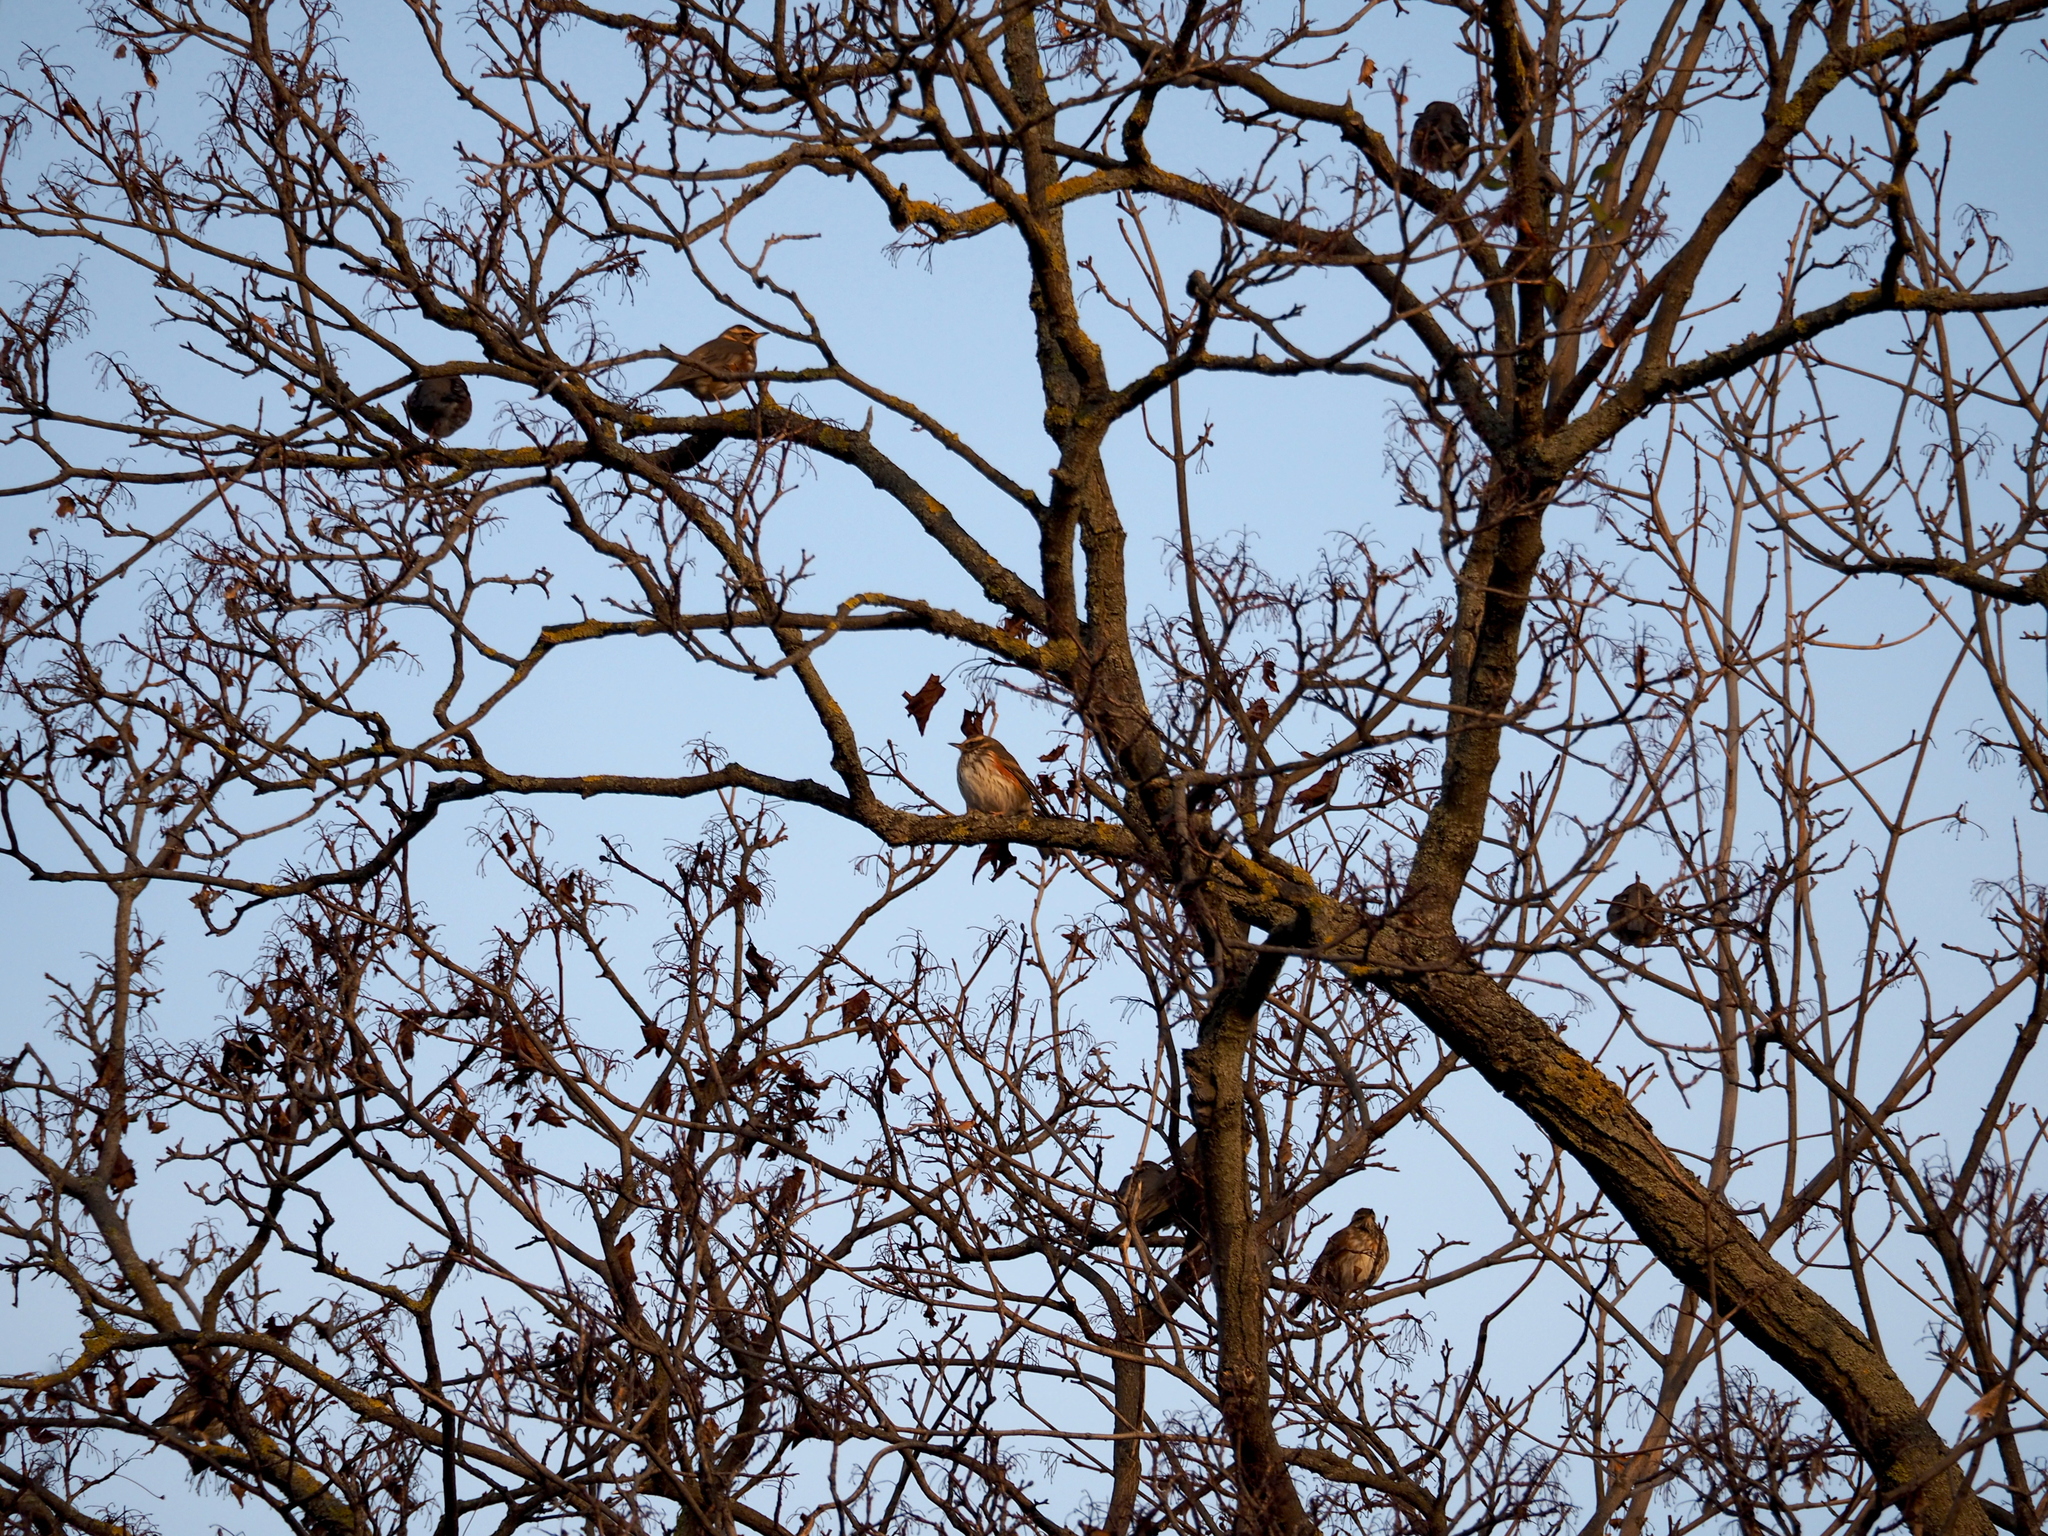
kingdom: Animalia
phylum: Chordata
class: Aves
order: Passeriformes
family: Turdidae
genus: Turdus
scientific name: Turdus iliacus
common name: Redwing
